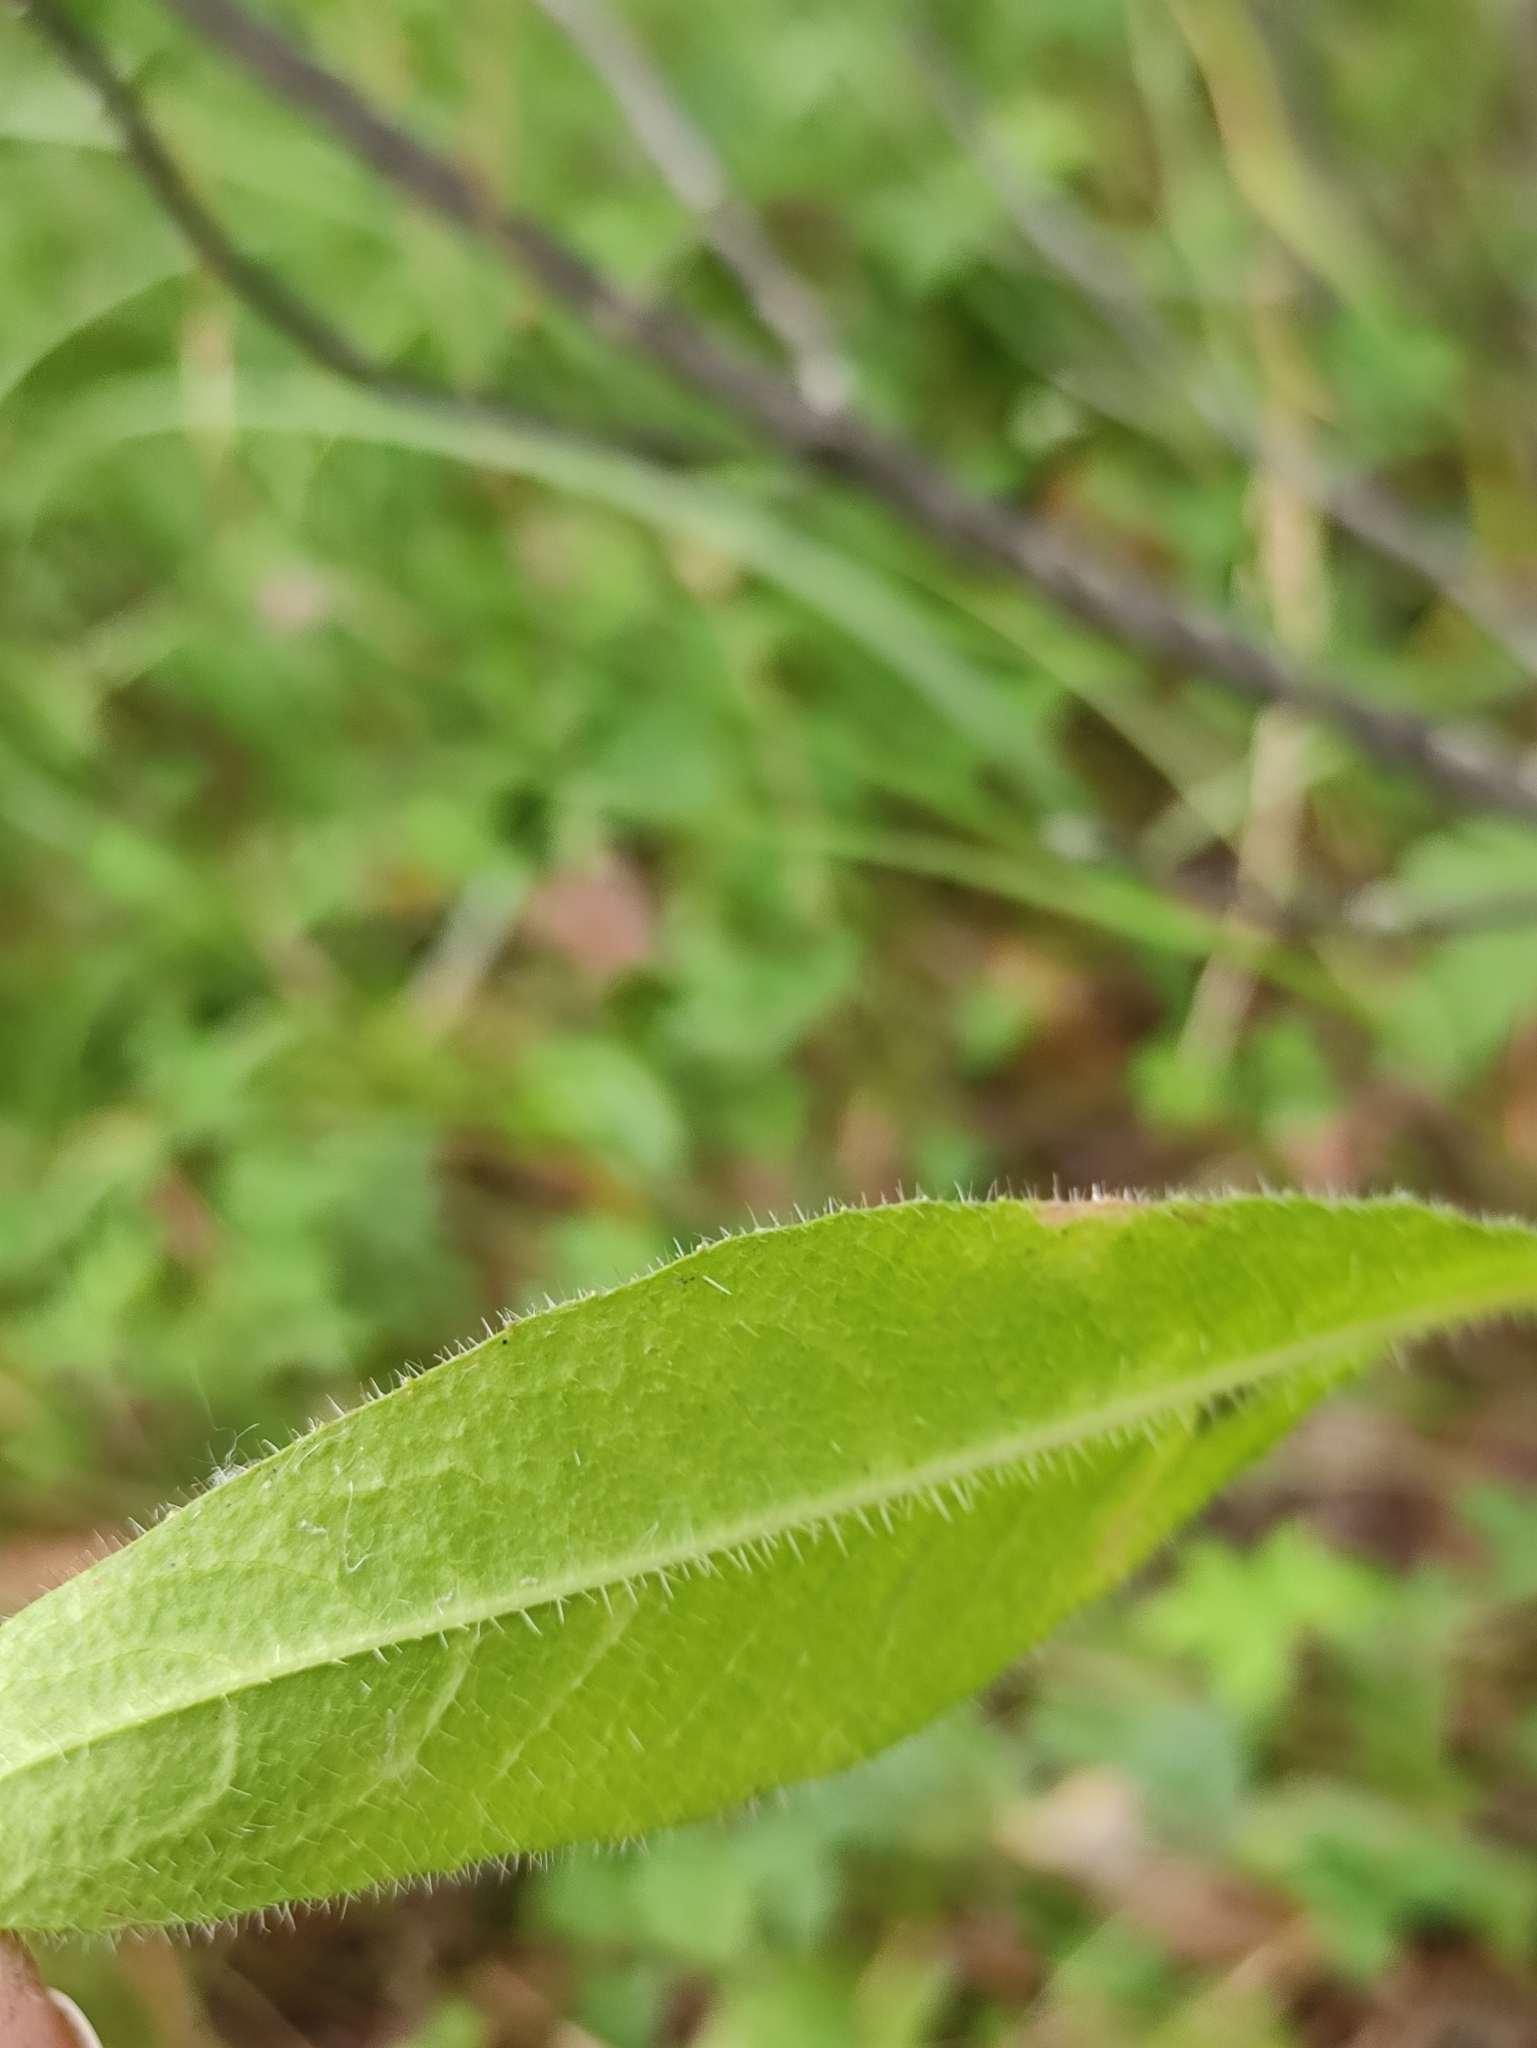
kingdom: Plantae
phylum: Tracheophyta
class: Magnoliopsida
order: Asterales
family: Asteraceae
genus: Picris
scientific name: Picris davurica
